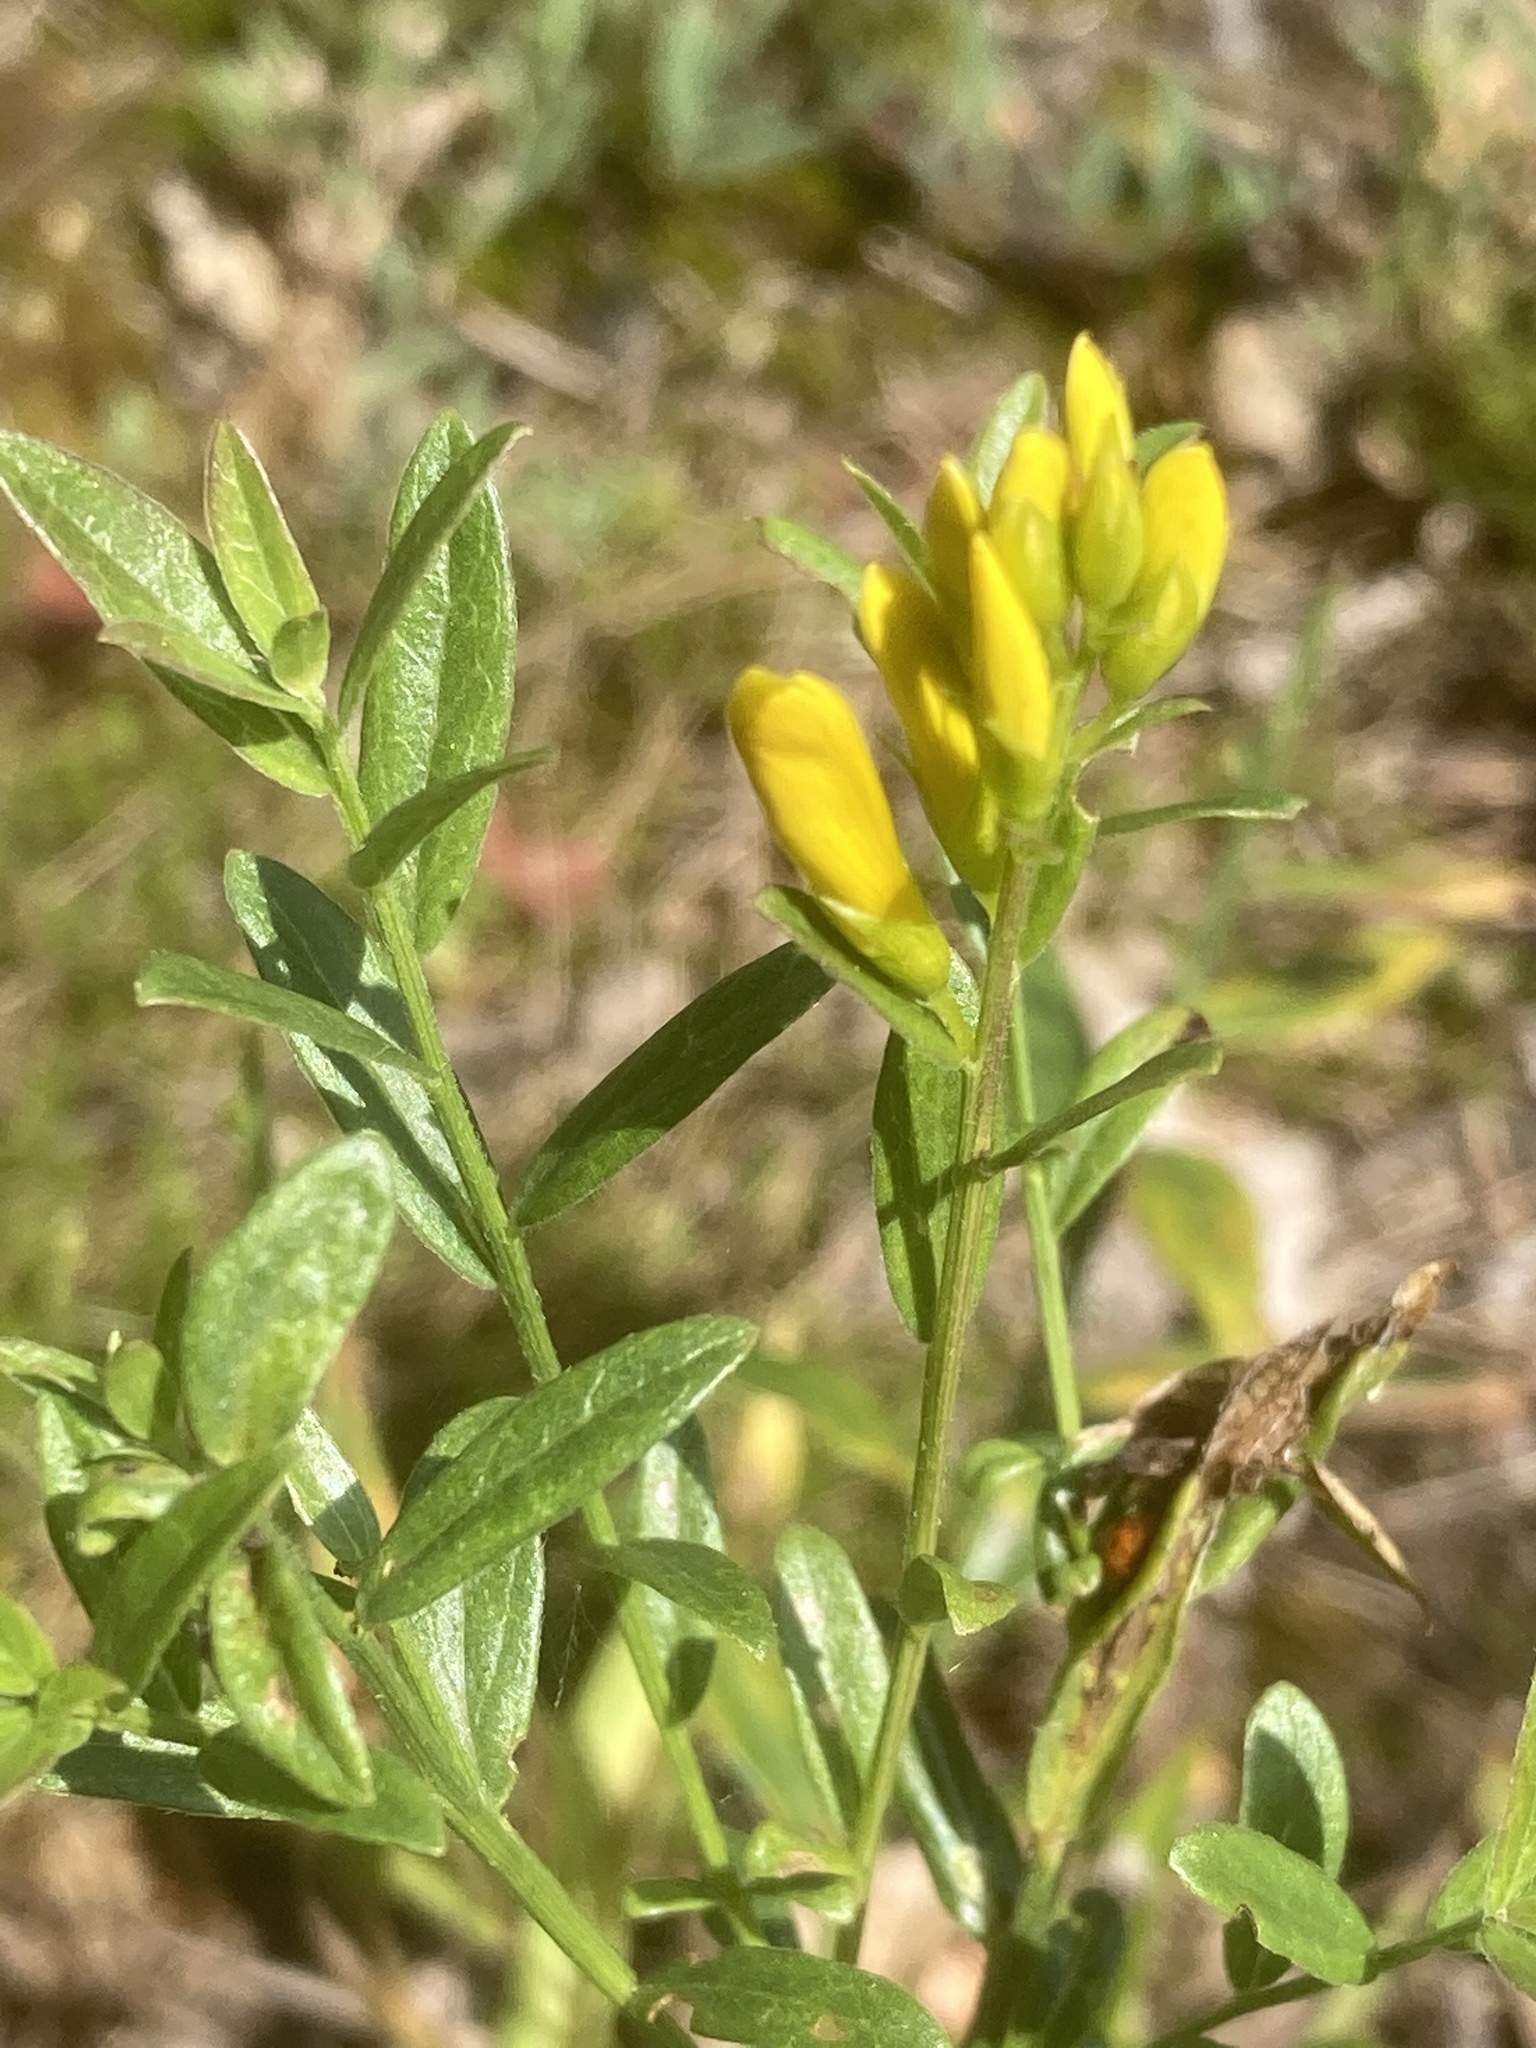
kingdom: Plantae
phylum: Tracheophyta
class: Magnoliopsida
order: Fabales
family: Fabaceae
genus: Genista
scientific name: Genista tinctoria
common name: Dyer's greenweed
